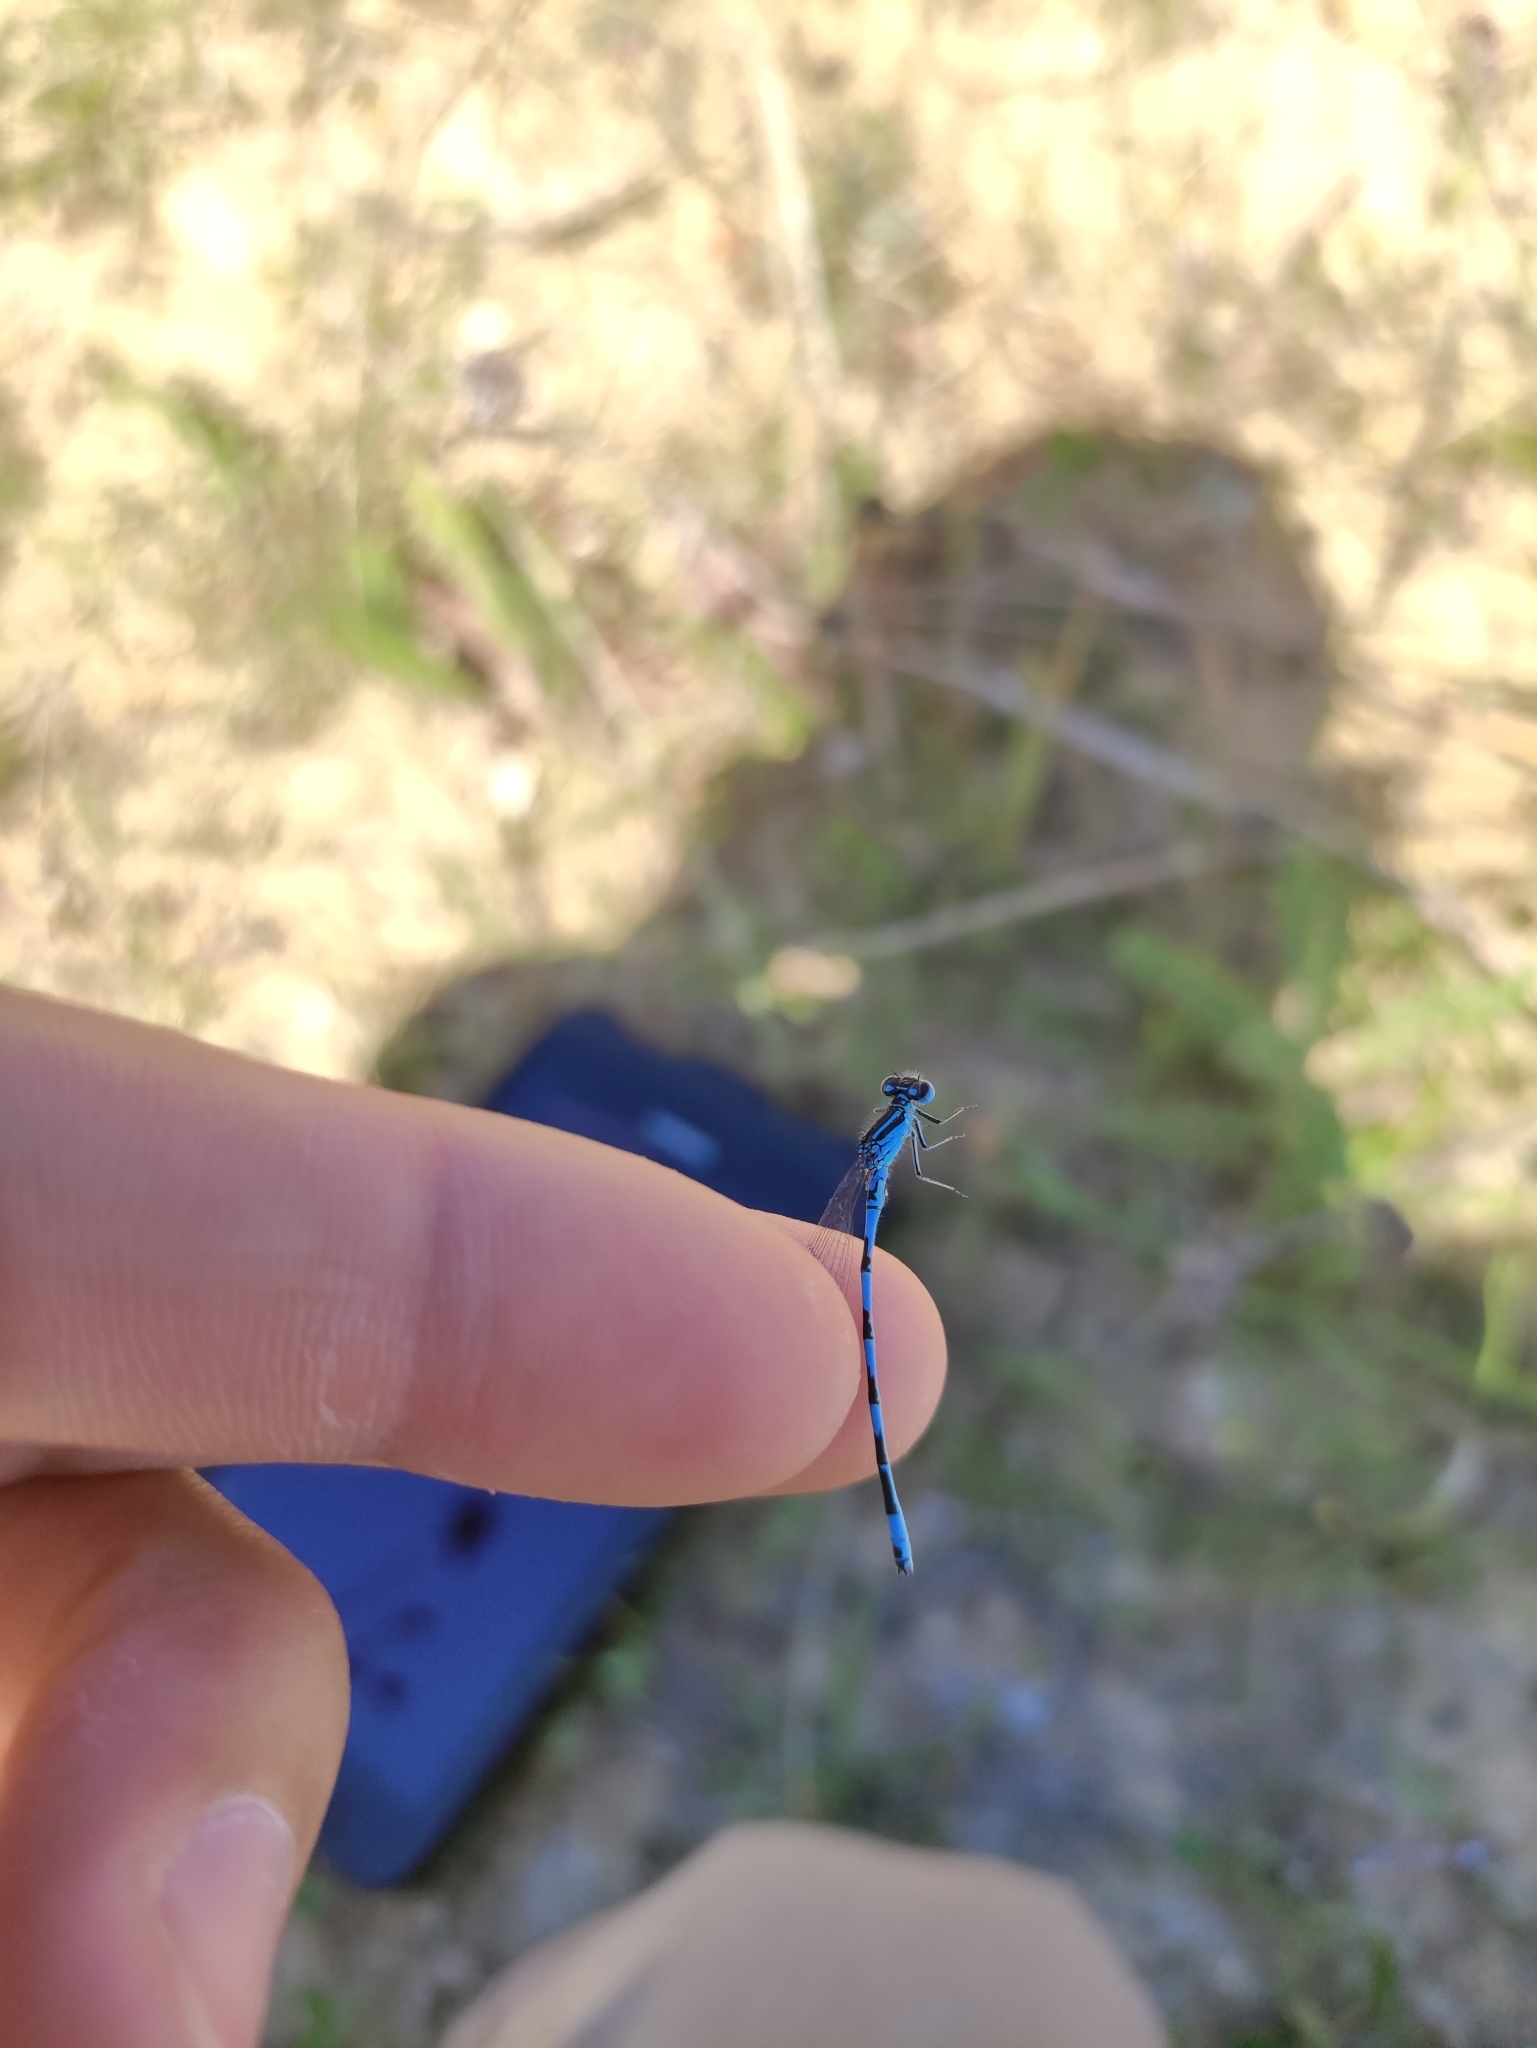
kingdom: Animalia
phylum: Arthropoda
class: Insecta
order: Odonata
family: Coenagrionidae
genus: Coenagrion
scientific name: Coenagrion mercuriale
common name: Southern damselfly
